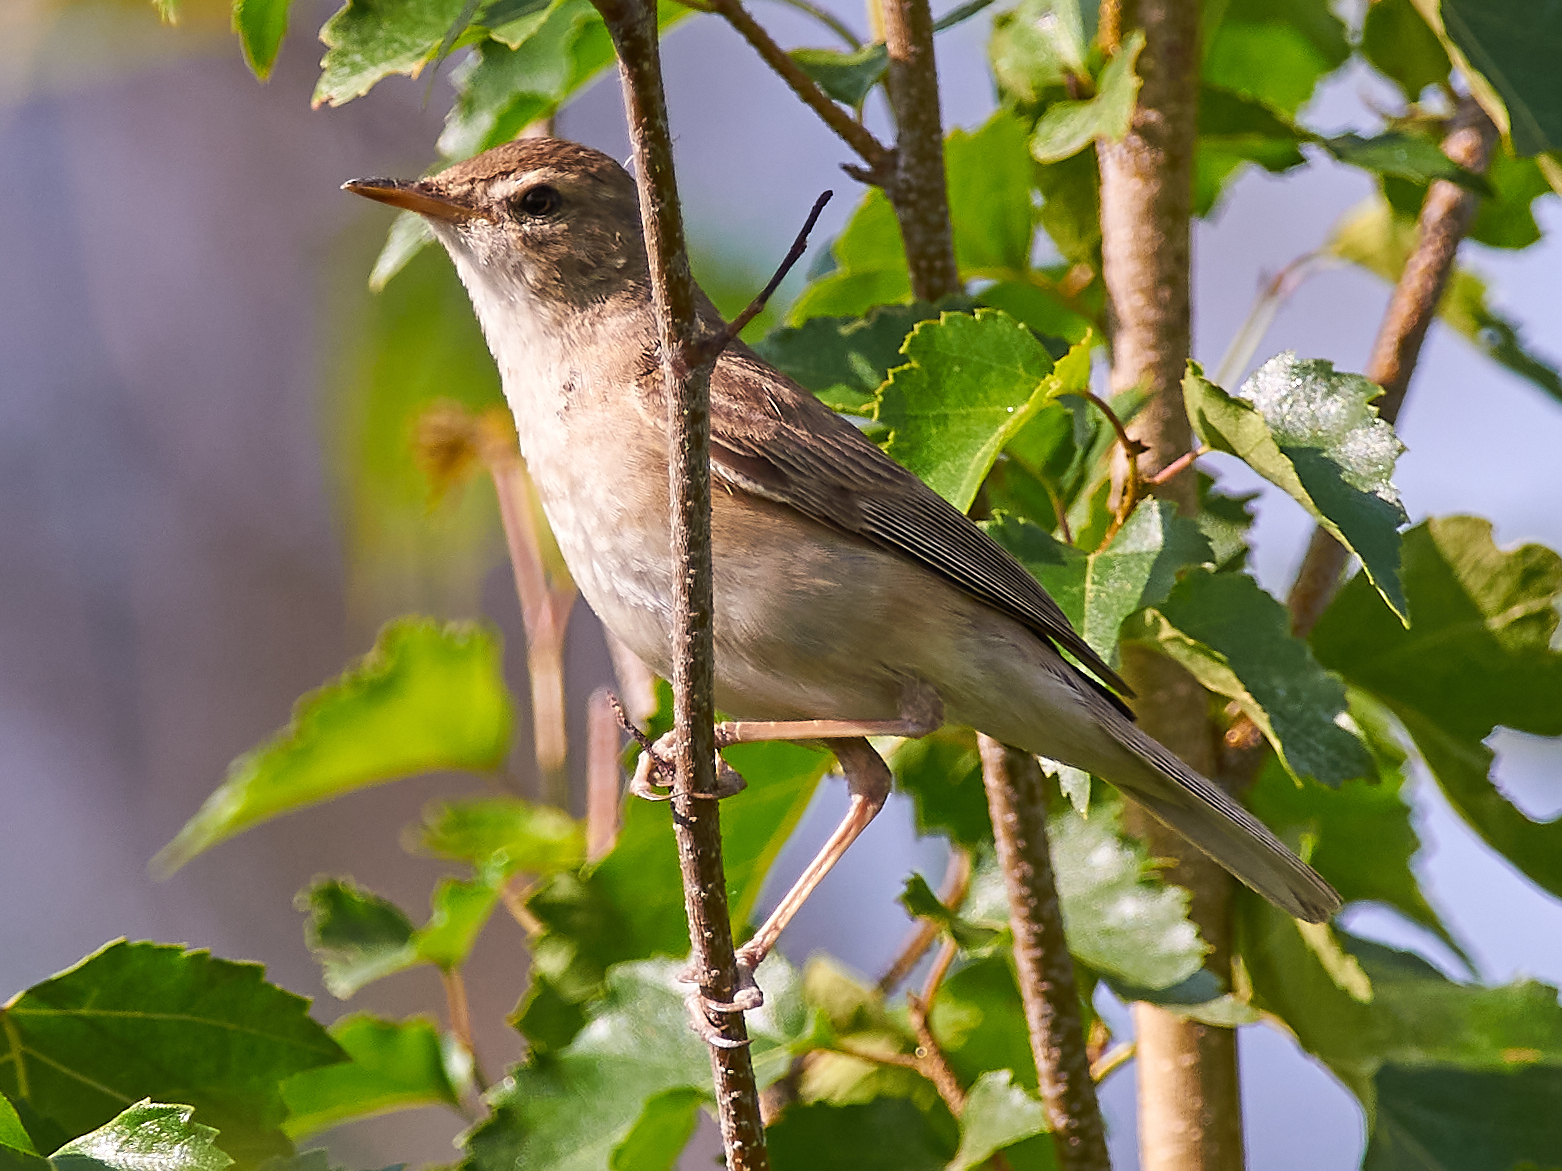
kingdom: Animalia
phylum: Chordata
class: Aves
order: Passeriformes
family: Acrocephalidae
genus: Iduna
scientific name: Iduna caligata
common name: Booted warbler
